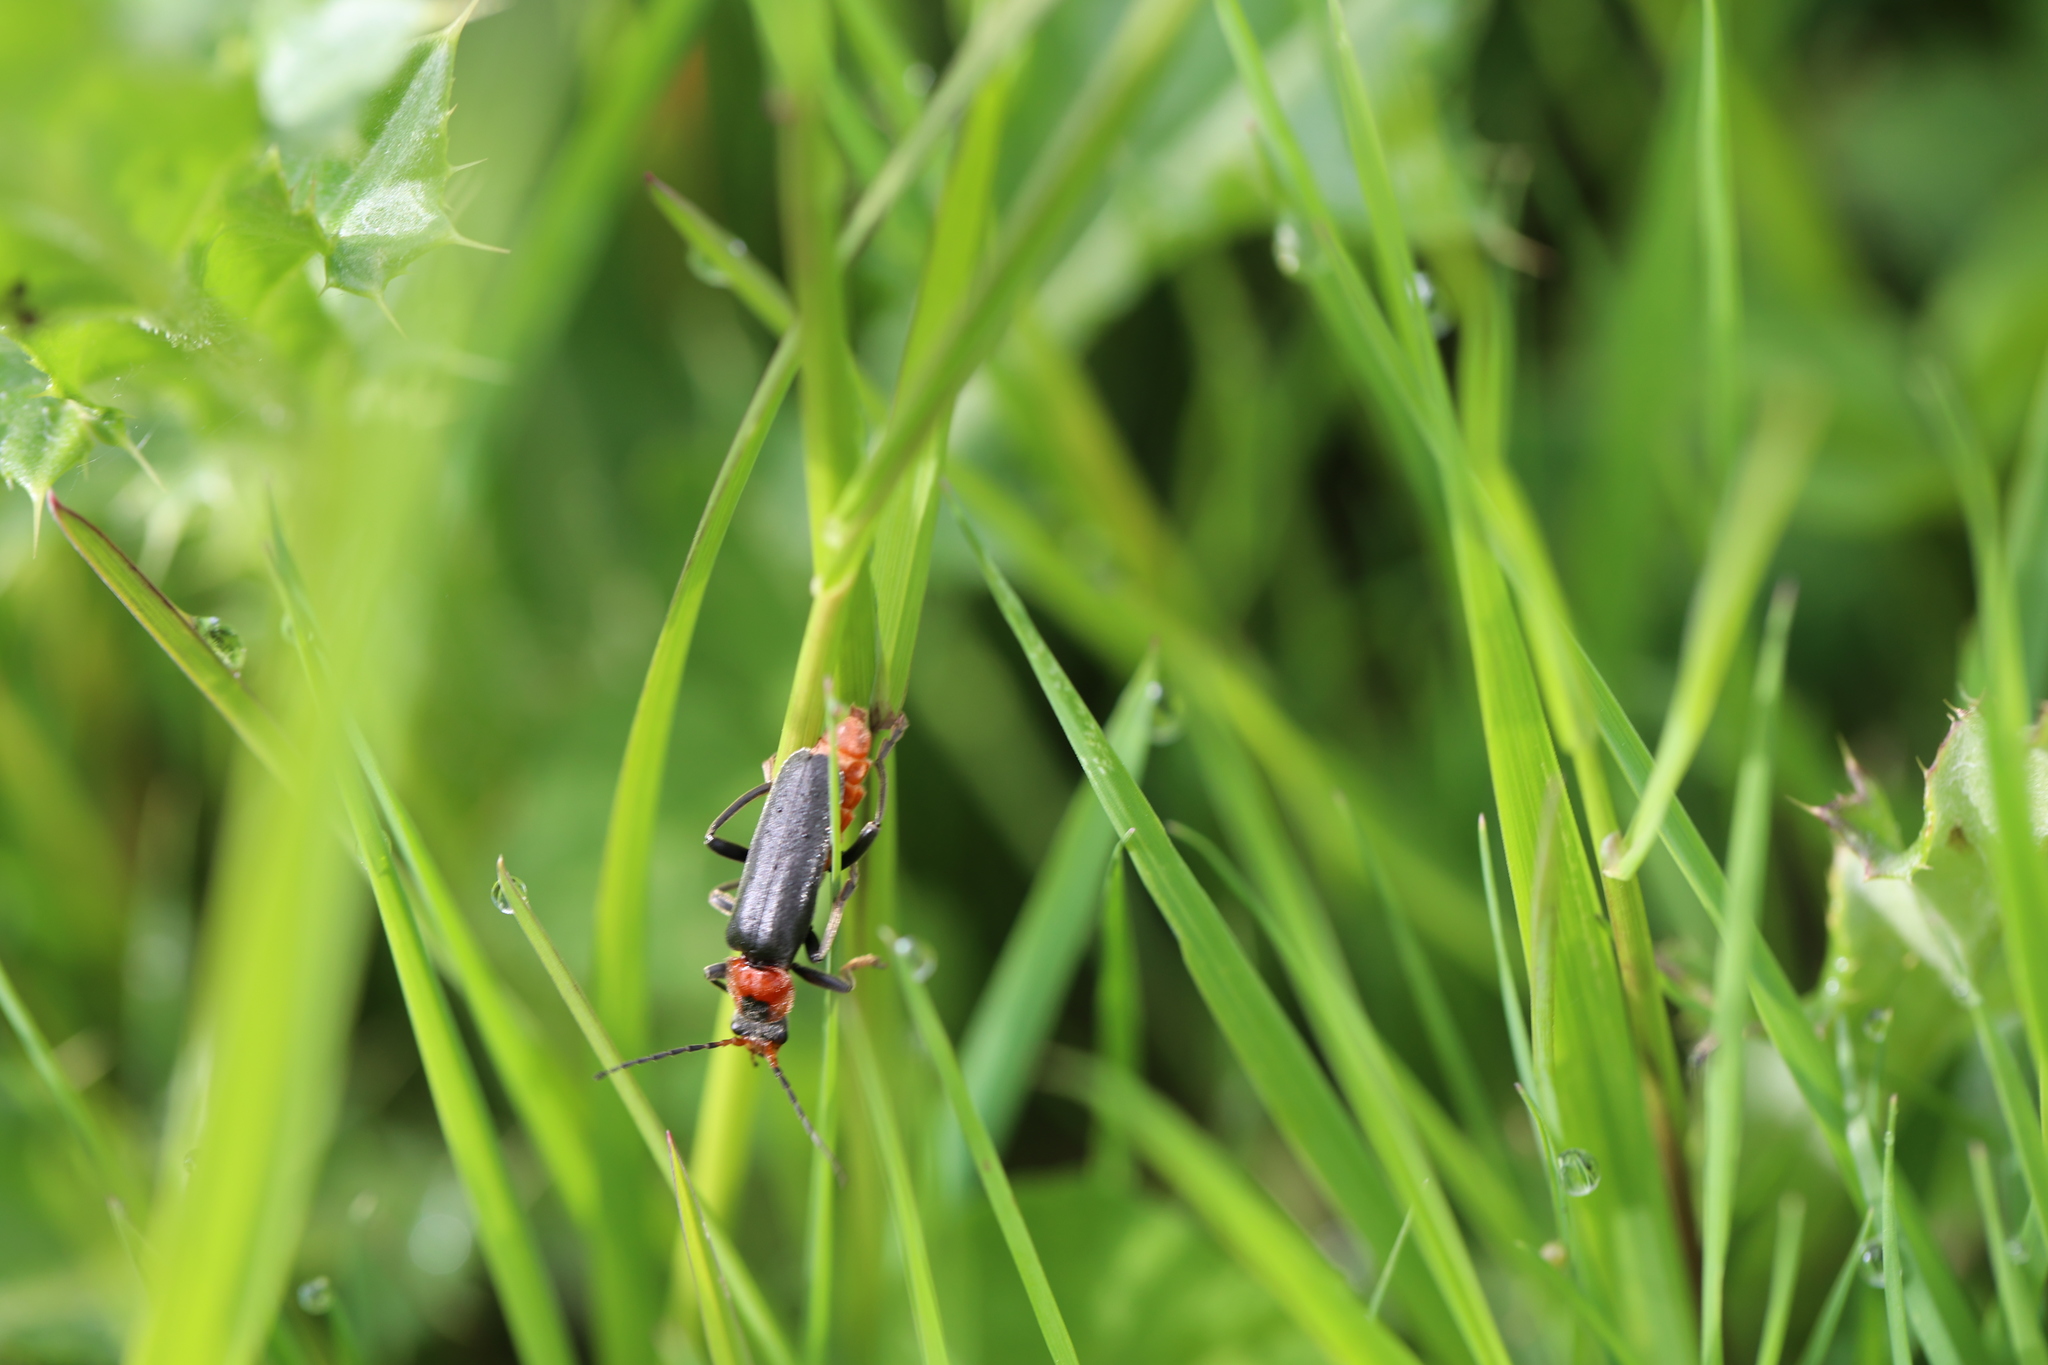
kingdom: Animalia
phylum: Arthropoda
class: Insecta
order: Coleoptera
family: Cantharidae
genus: Cantharis
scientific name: Cantharis fusca
